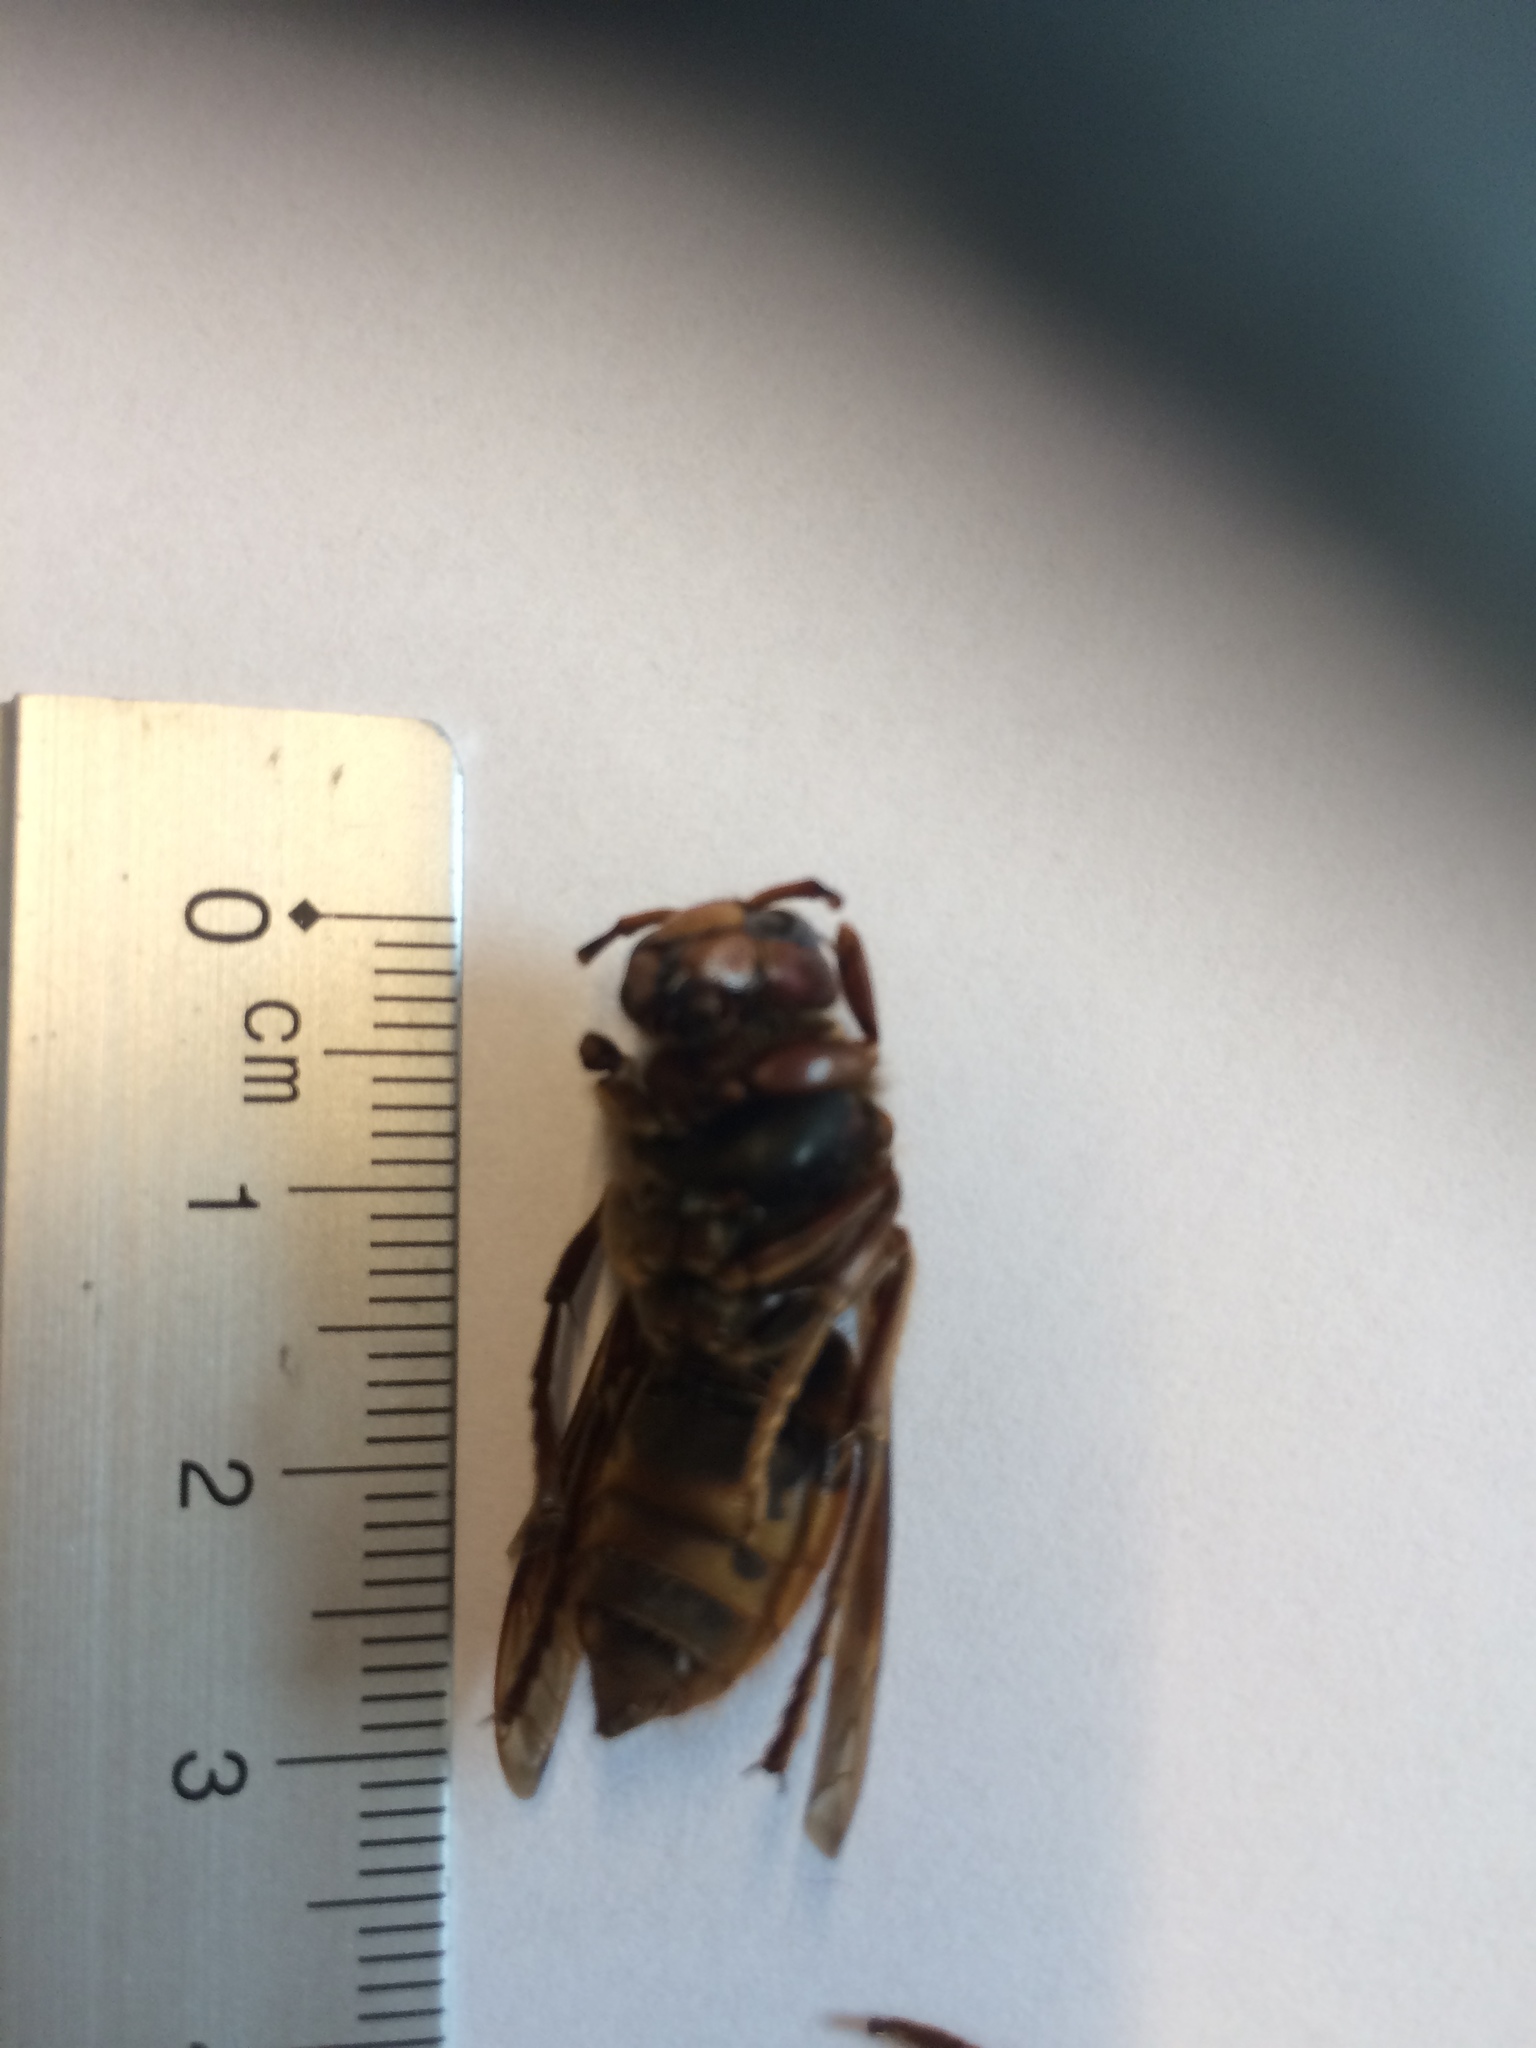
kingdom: Animalia
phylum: Arthropoda
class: Insecta
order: Hymenoptera
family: Vespidae
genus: Vespa
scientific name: Vespa crabro
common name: Hornet
